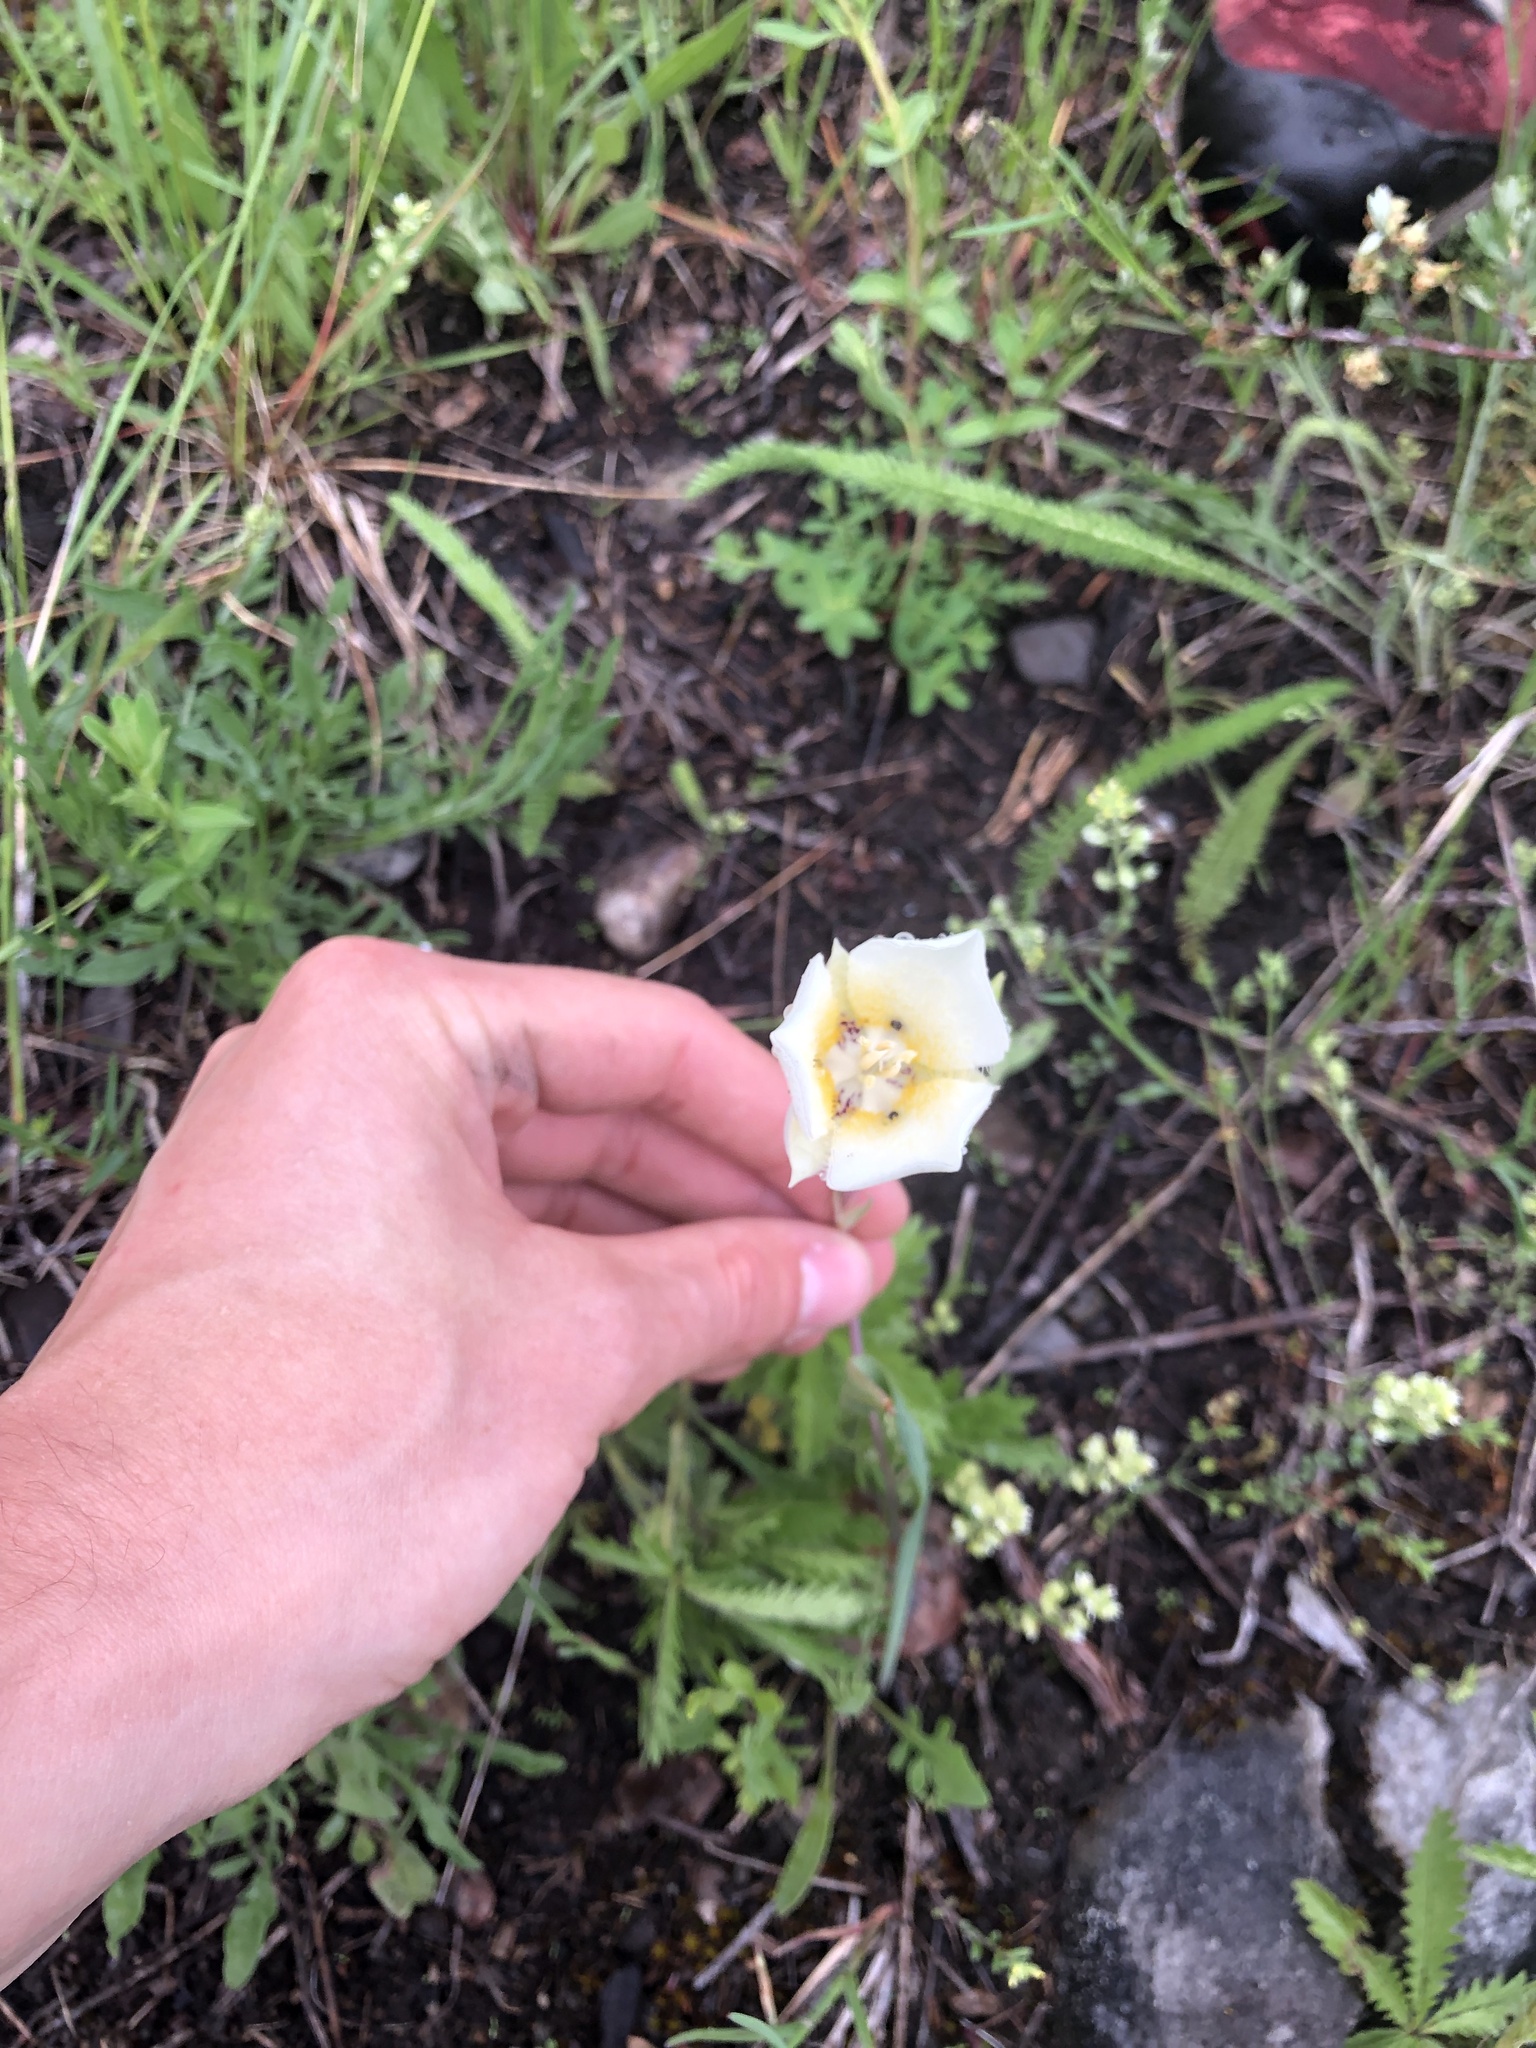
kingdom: Plantae
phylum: Tracheophyta
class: Liliopsida
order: Liliales
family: Liliaceae
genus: Calochortus
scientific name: Calochortus apiculatus
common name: Baker's mariposa lily
